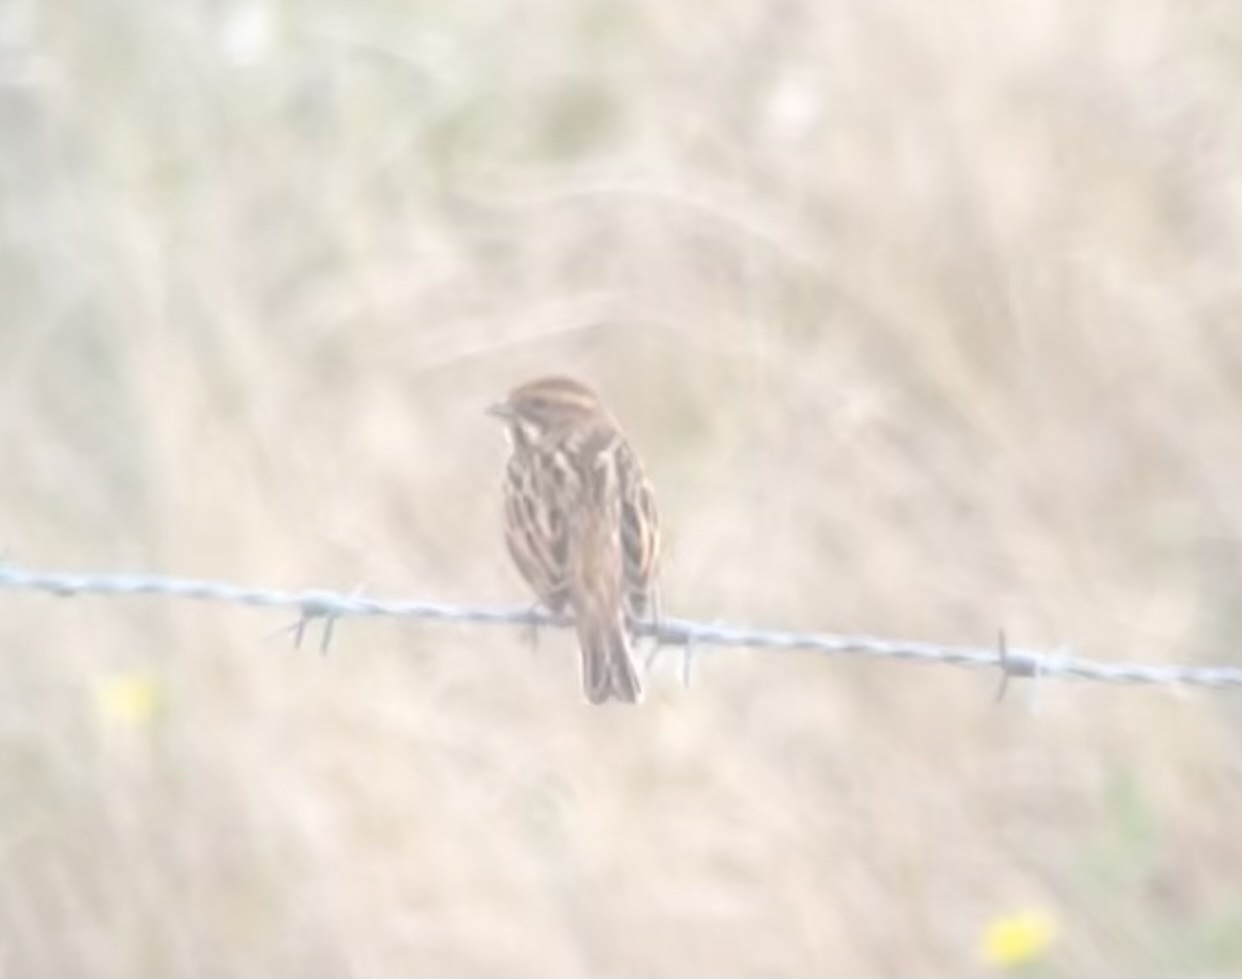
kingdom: Animalia
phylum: Chordata
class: Aves
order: Passeriformes
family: Emberizidae
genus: Emberiza
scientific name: Emberiza schoeniclus
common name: Reed bunting
